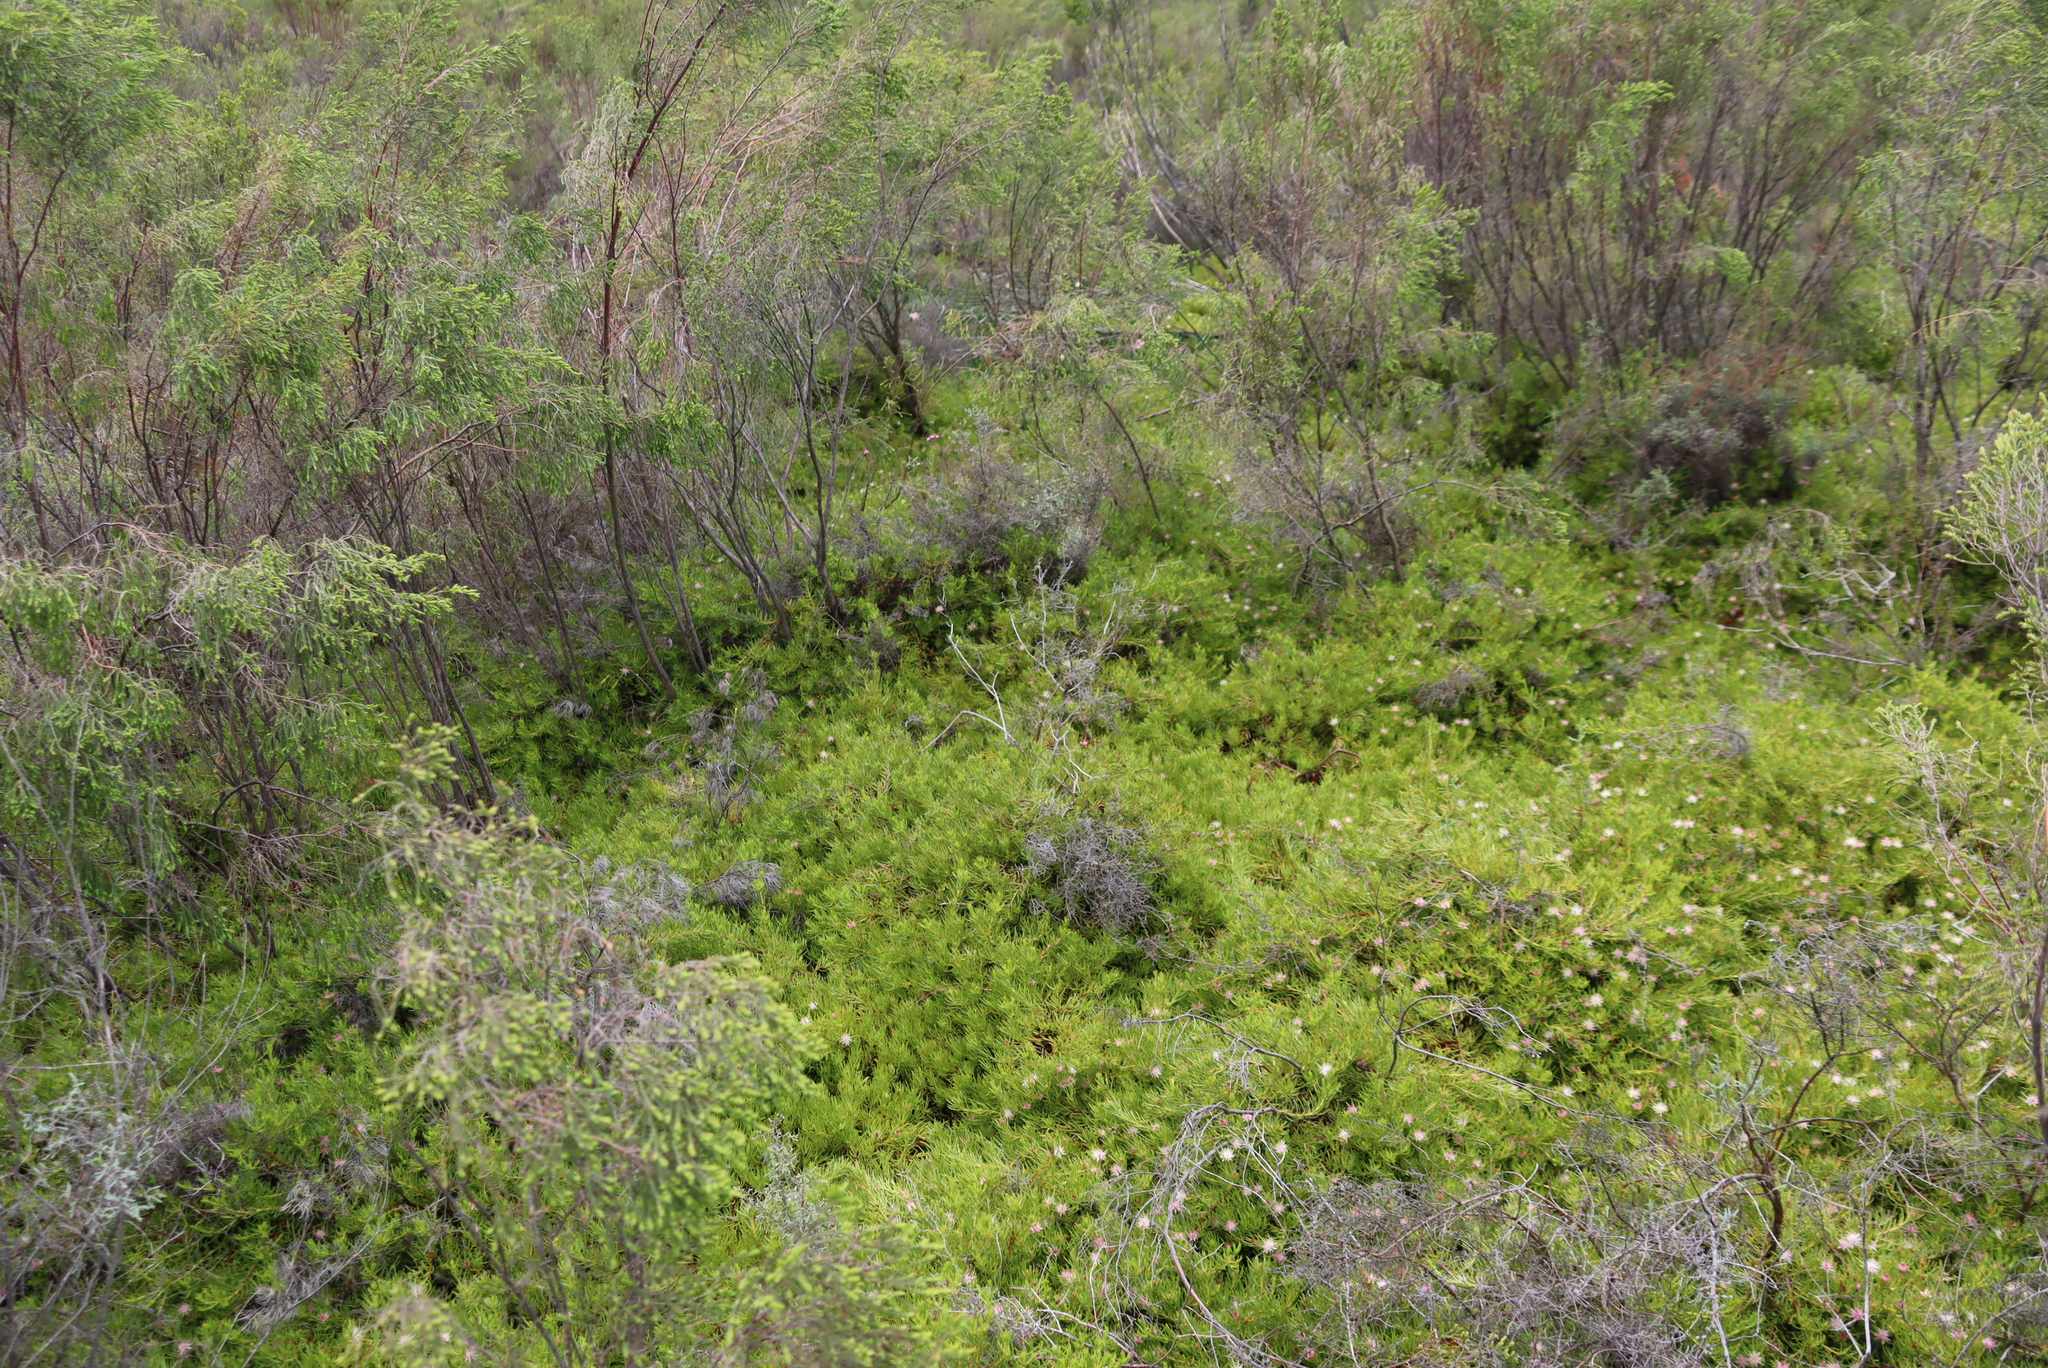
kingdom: Plantae
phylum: Tracheophyta
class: Magnoliopsida
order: Proteales
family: Proteaceae
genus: Diastella
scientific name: Diastella buekii
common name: Franschhoek silkypuff
